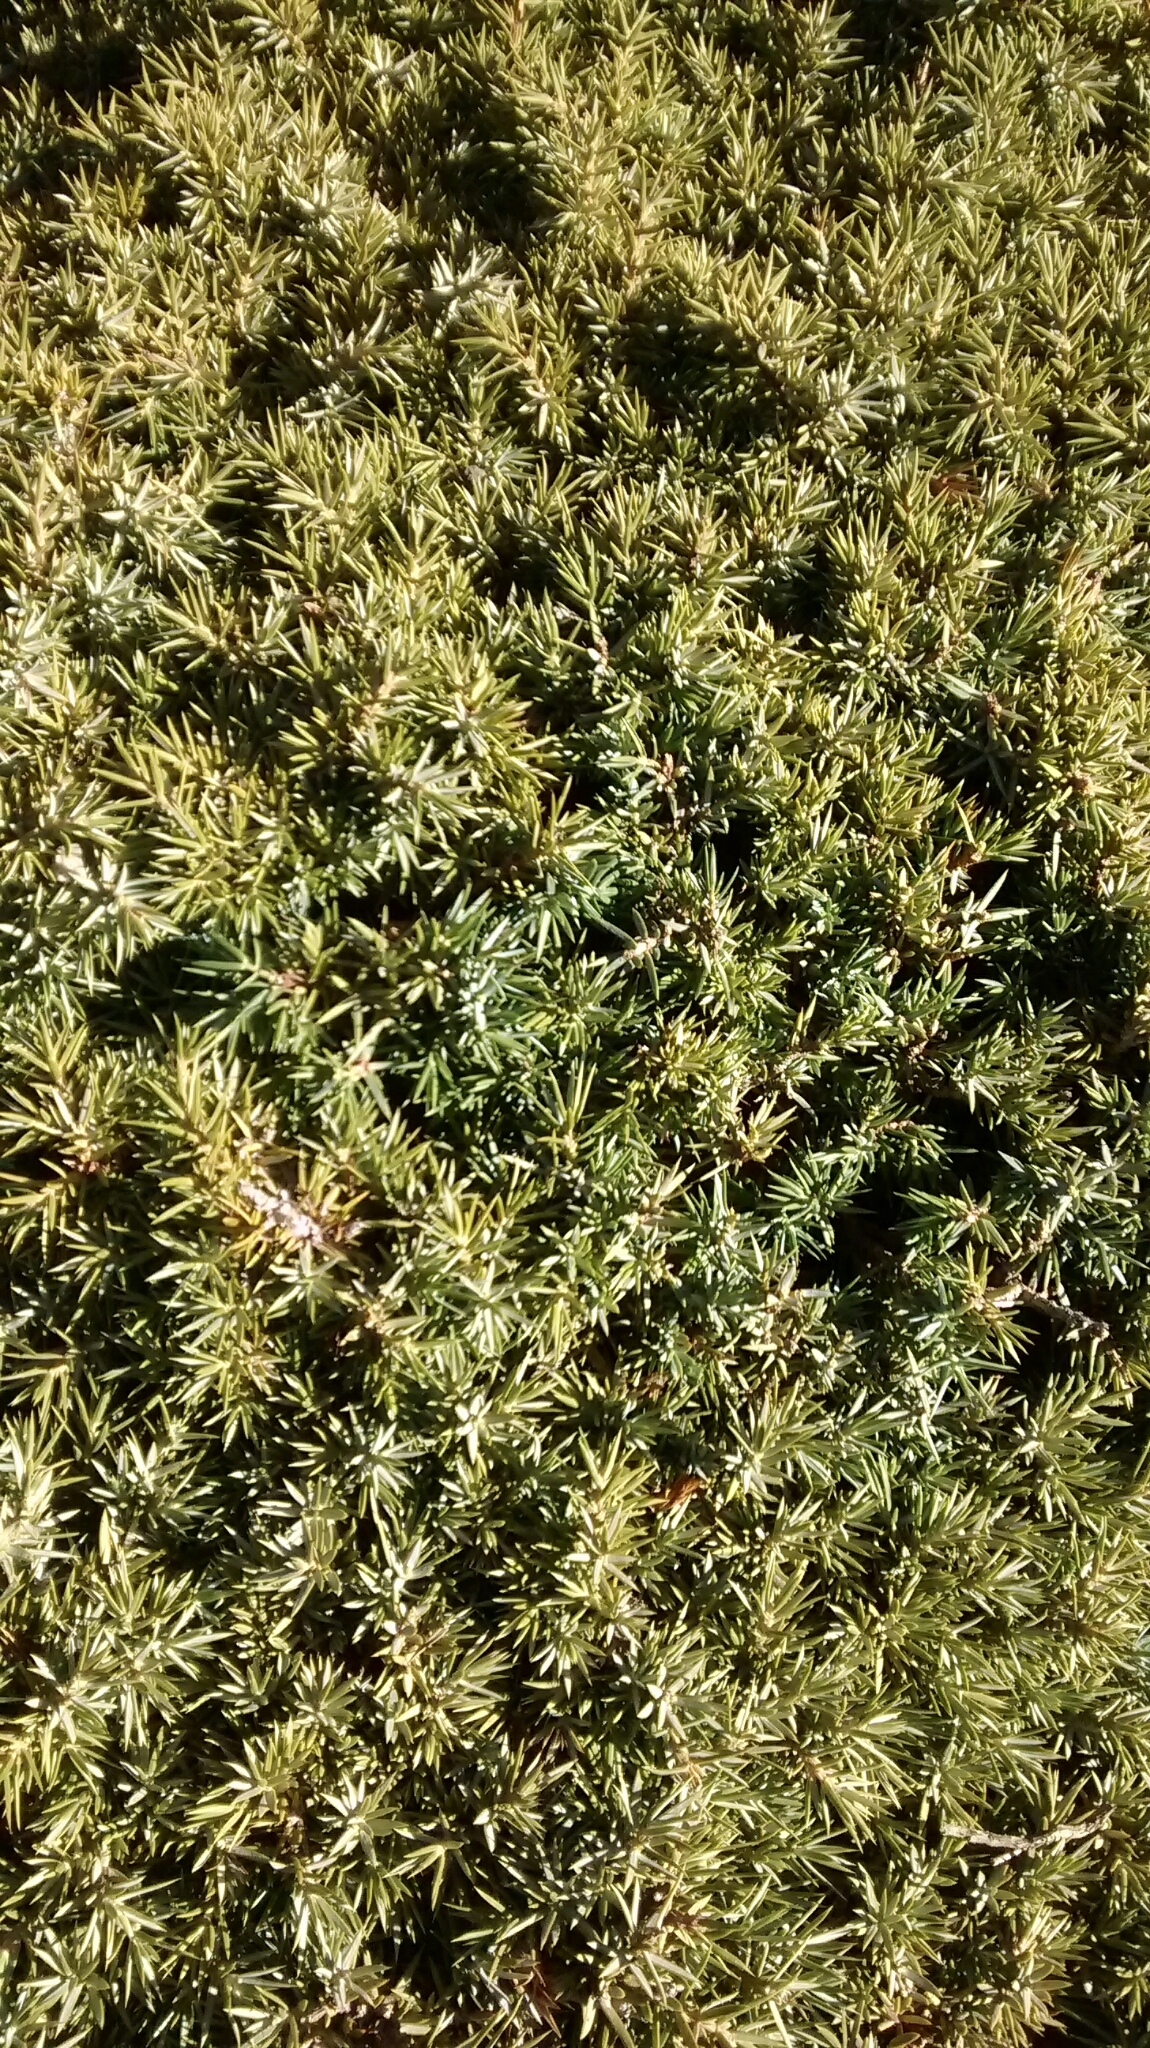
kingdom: Plantae
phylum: Tracheophyta
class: Pinopsida
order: Pinales
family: Cupressaceae
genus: Juniperus
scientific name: Juniperus communis
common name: Common juniper
